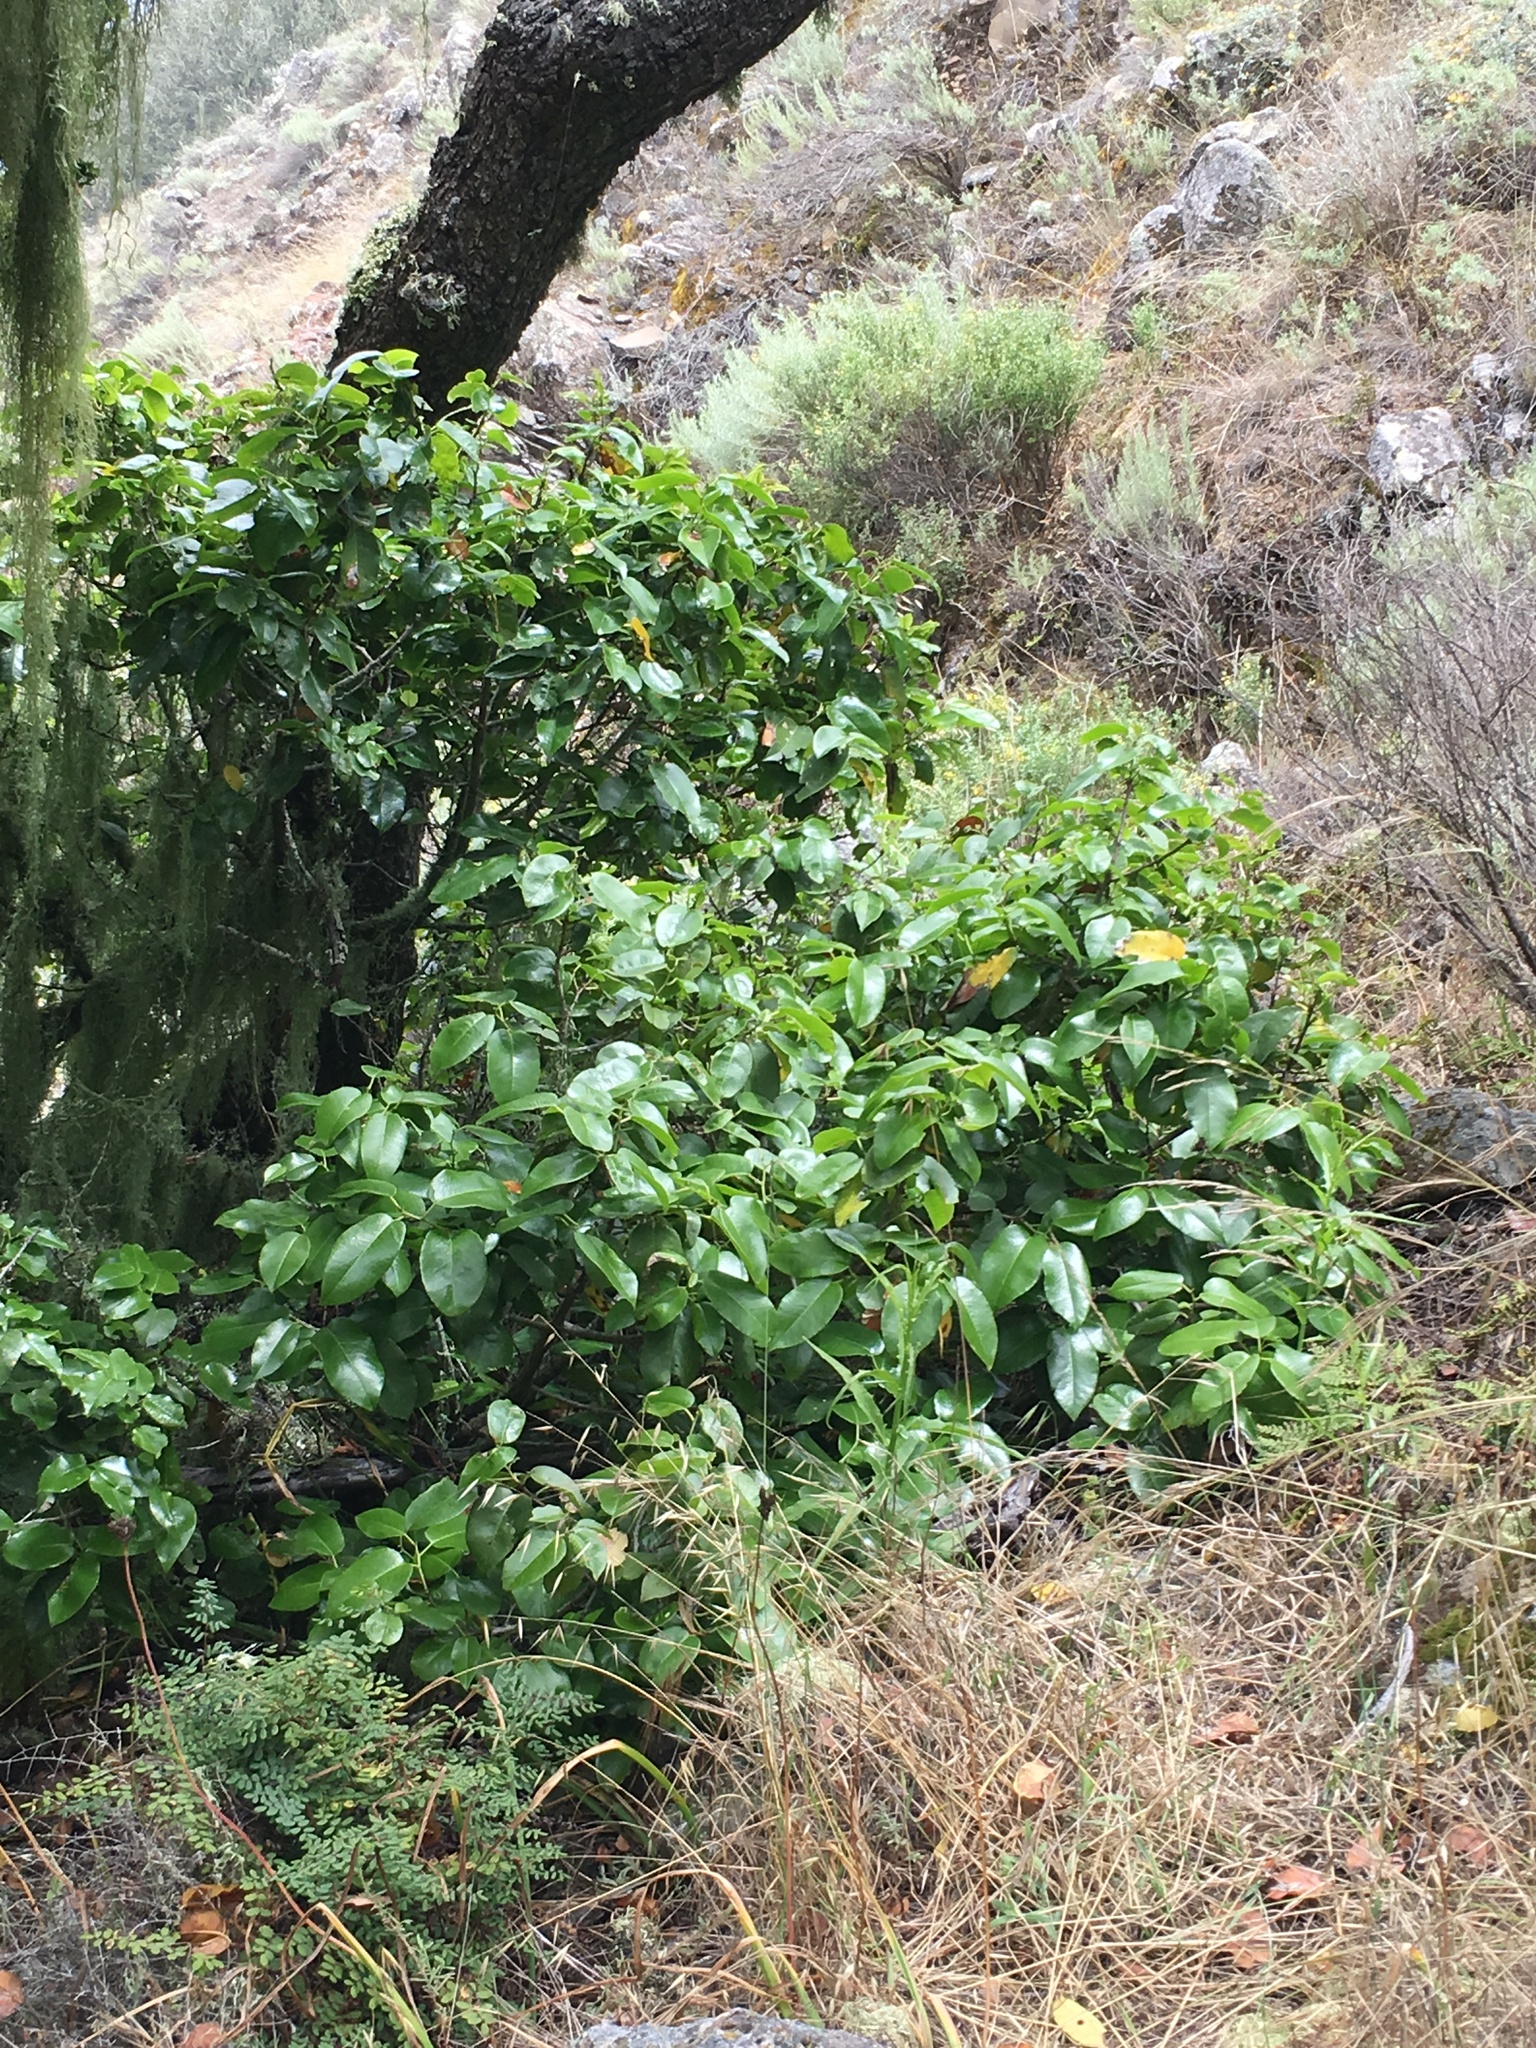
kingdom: Plantae
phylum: Tracheophyta
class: Magnoliopsida
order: Rosales
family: Rosaceae
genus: Prunus
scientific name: Prunus ilicifolia
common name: Hollyleaf cherry
